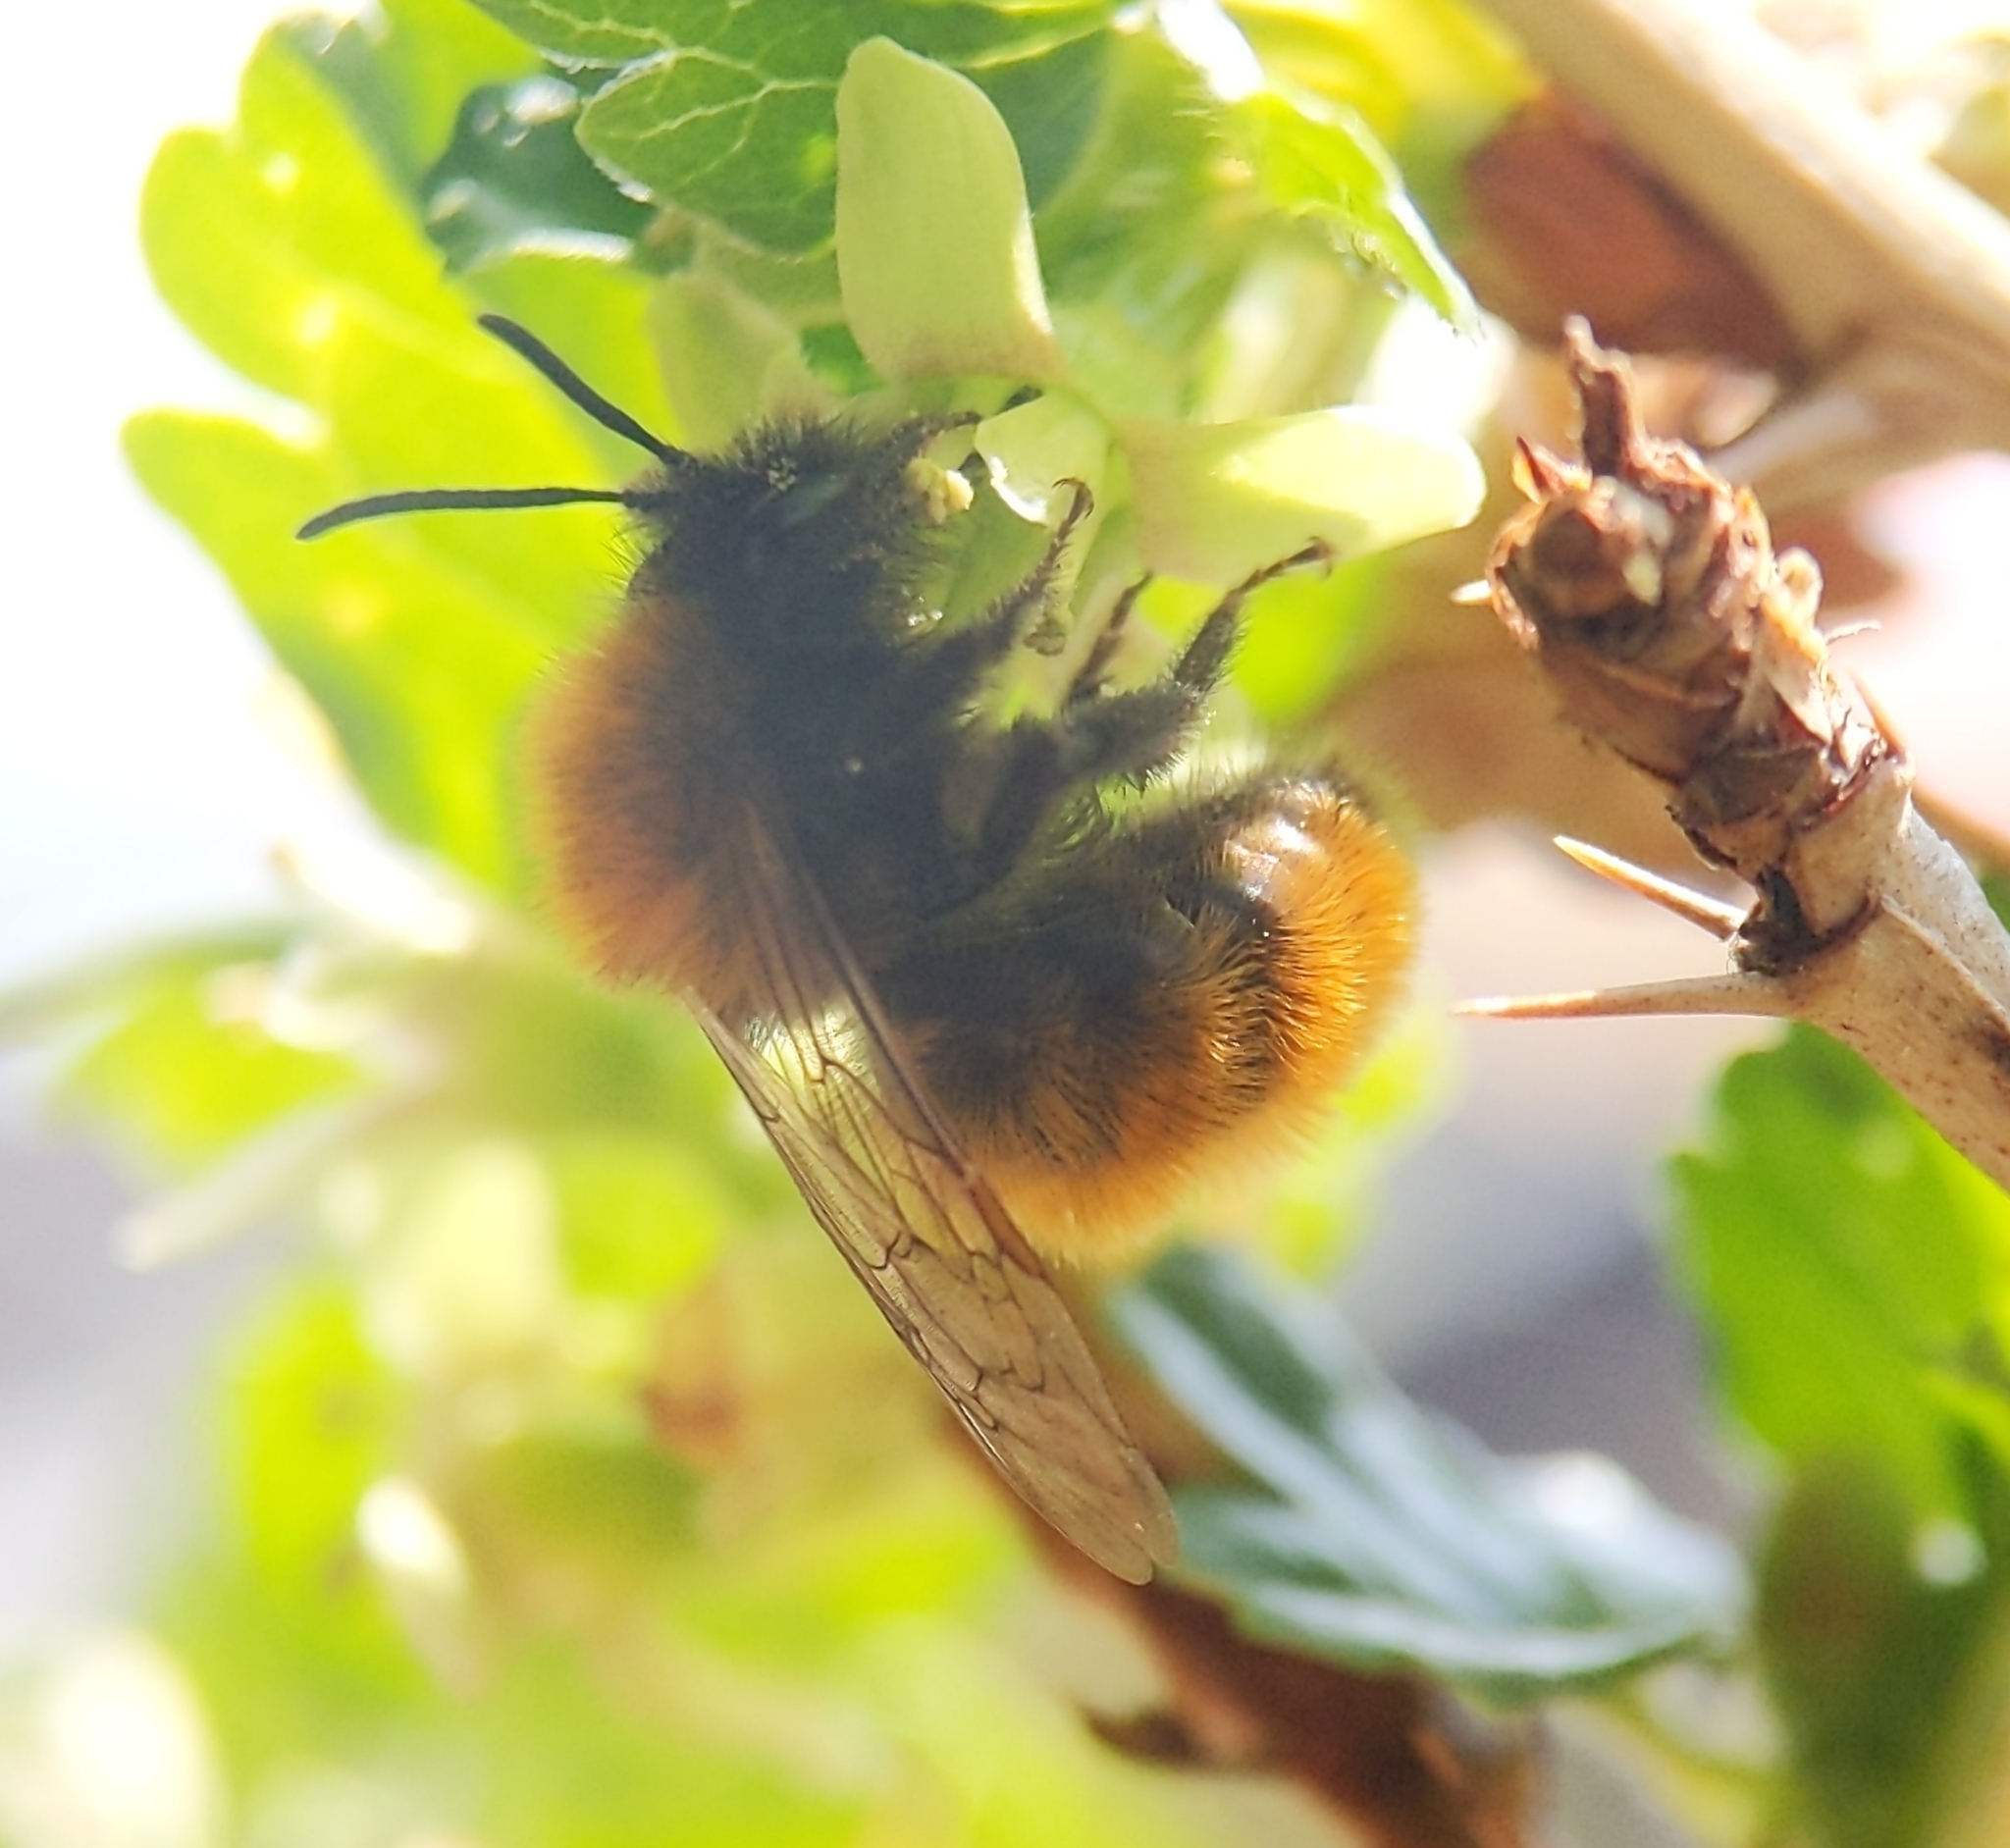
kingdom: Animalia
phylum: Arthropoda
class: Insecta
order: Hymenoptera
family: Andrenidae
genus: Andrena
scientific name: Andrena fulva
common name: Tawny mining bee
